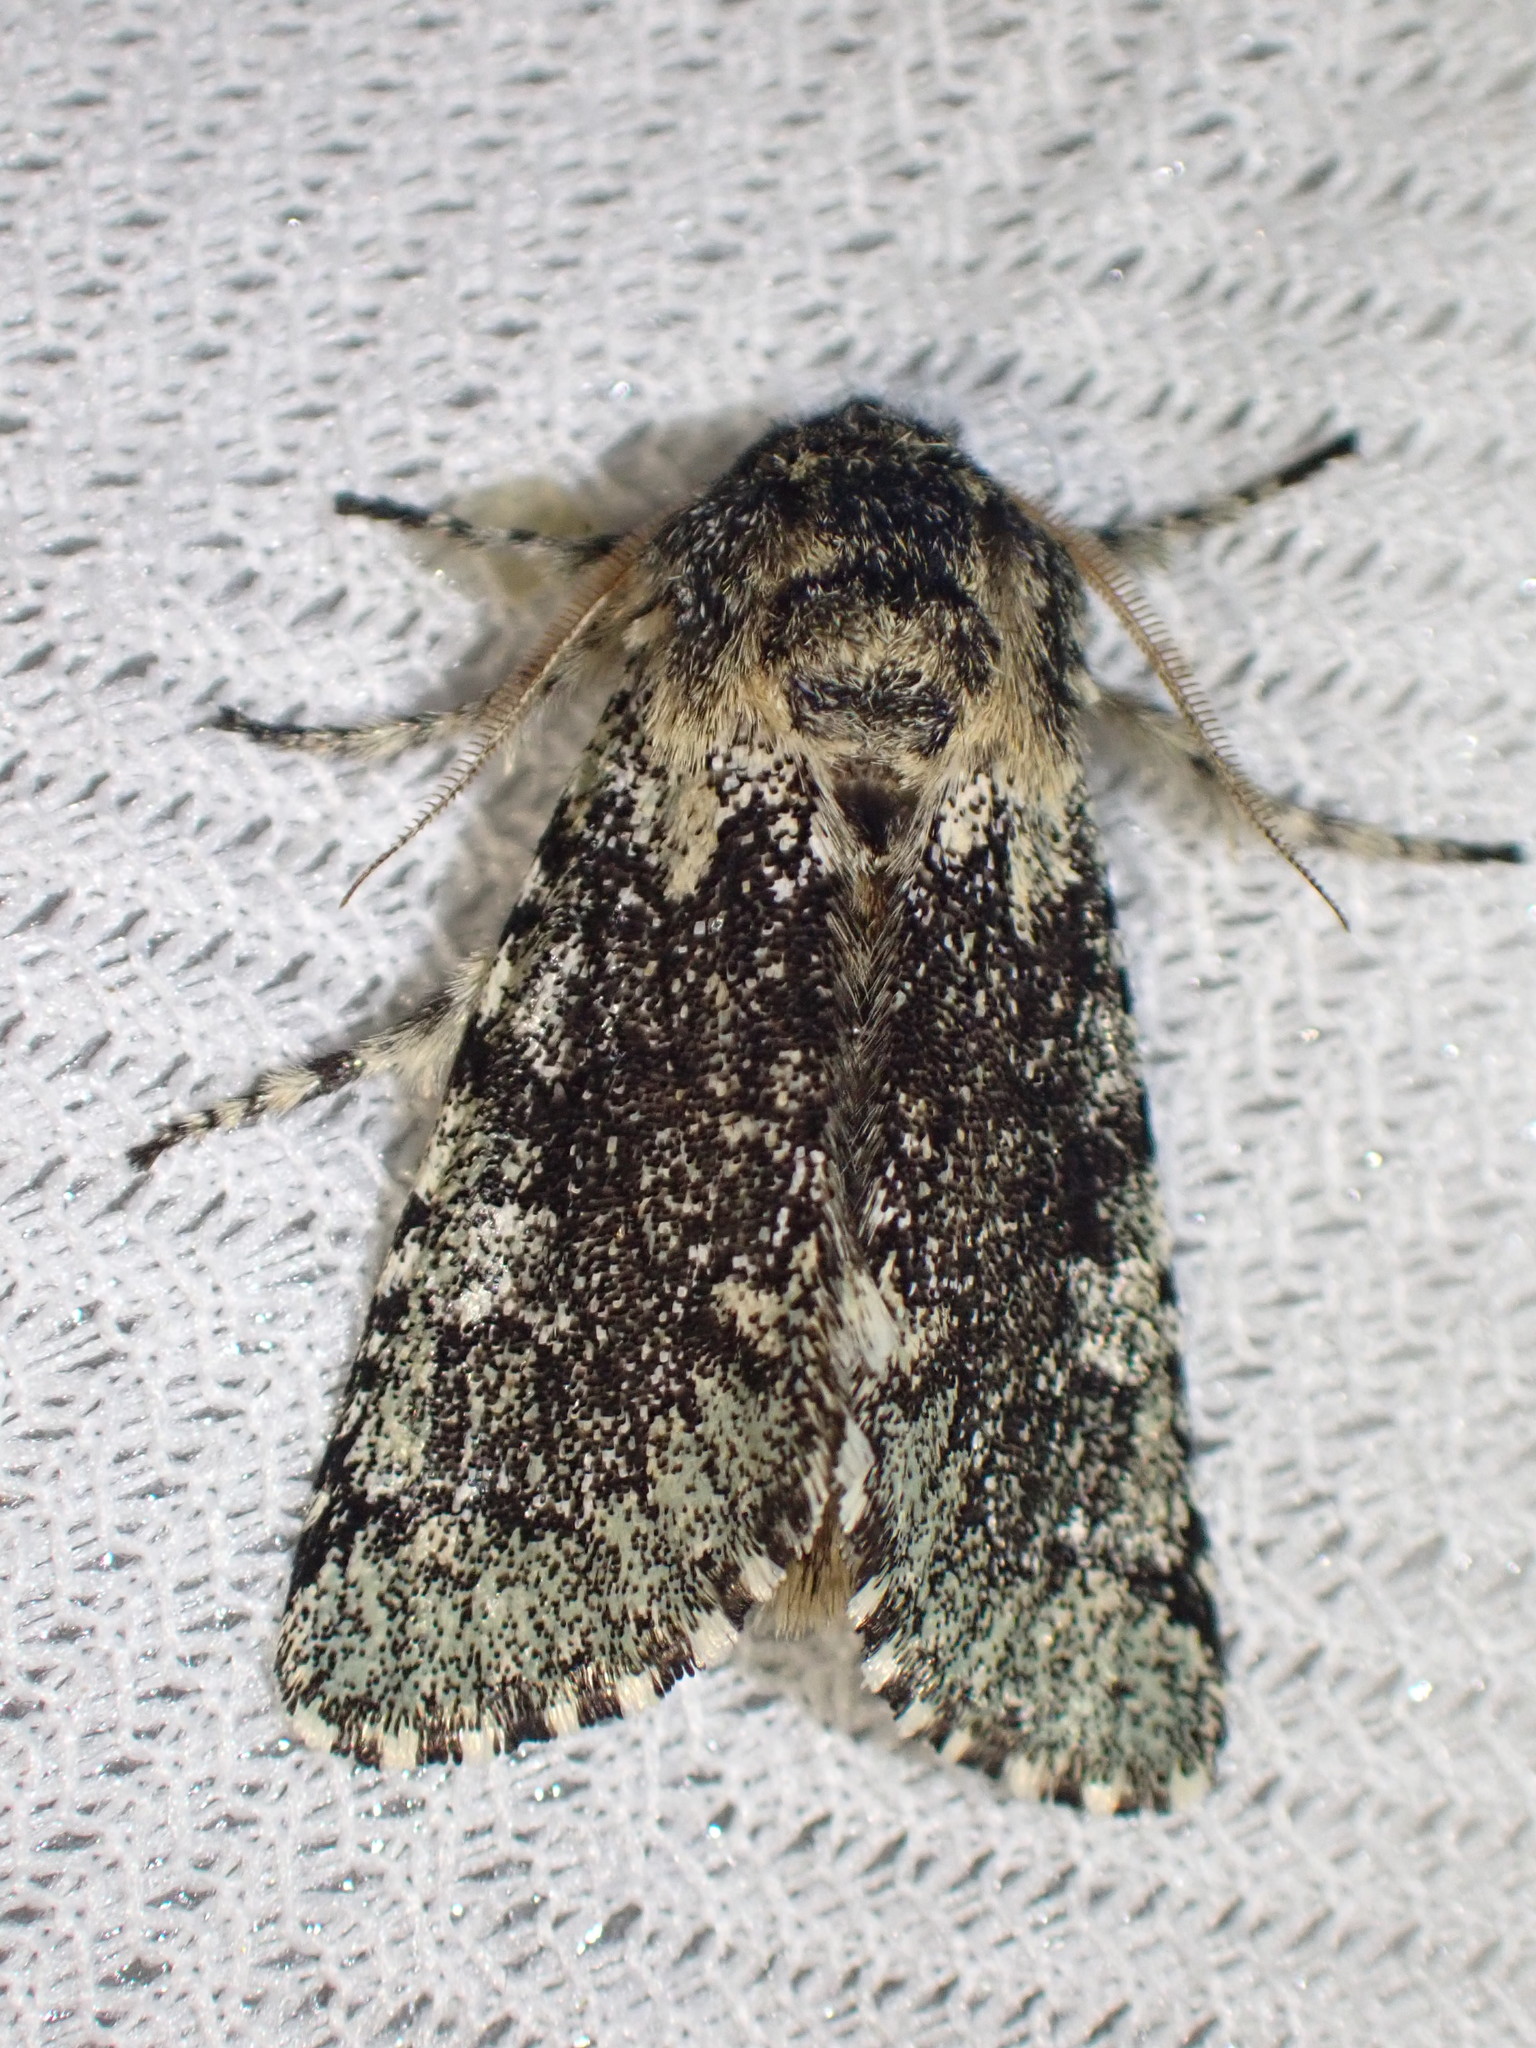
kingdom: Animalia
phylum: Arthropoda
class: Insecta
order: Lepidoptera
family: Noctuidae
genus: Feralia
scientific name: Feralia major
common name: Major sallow
